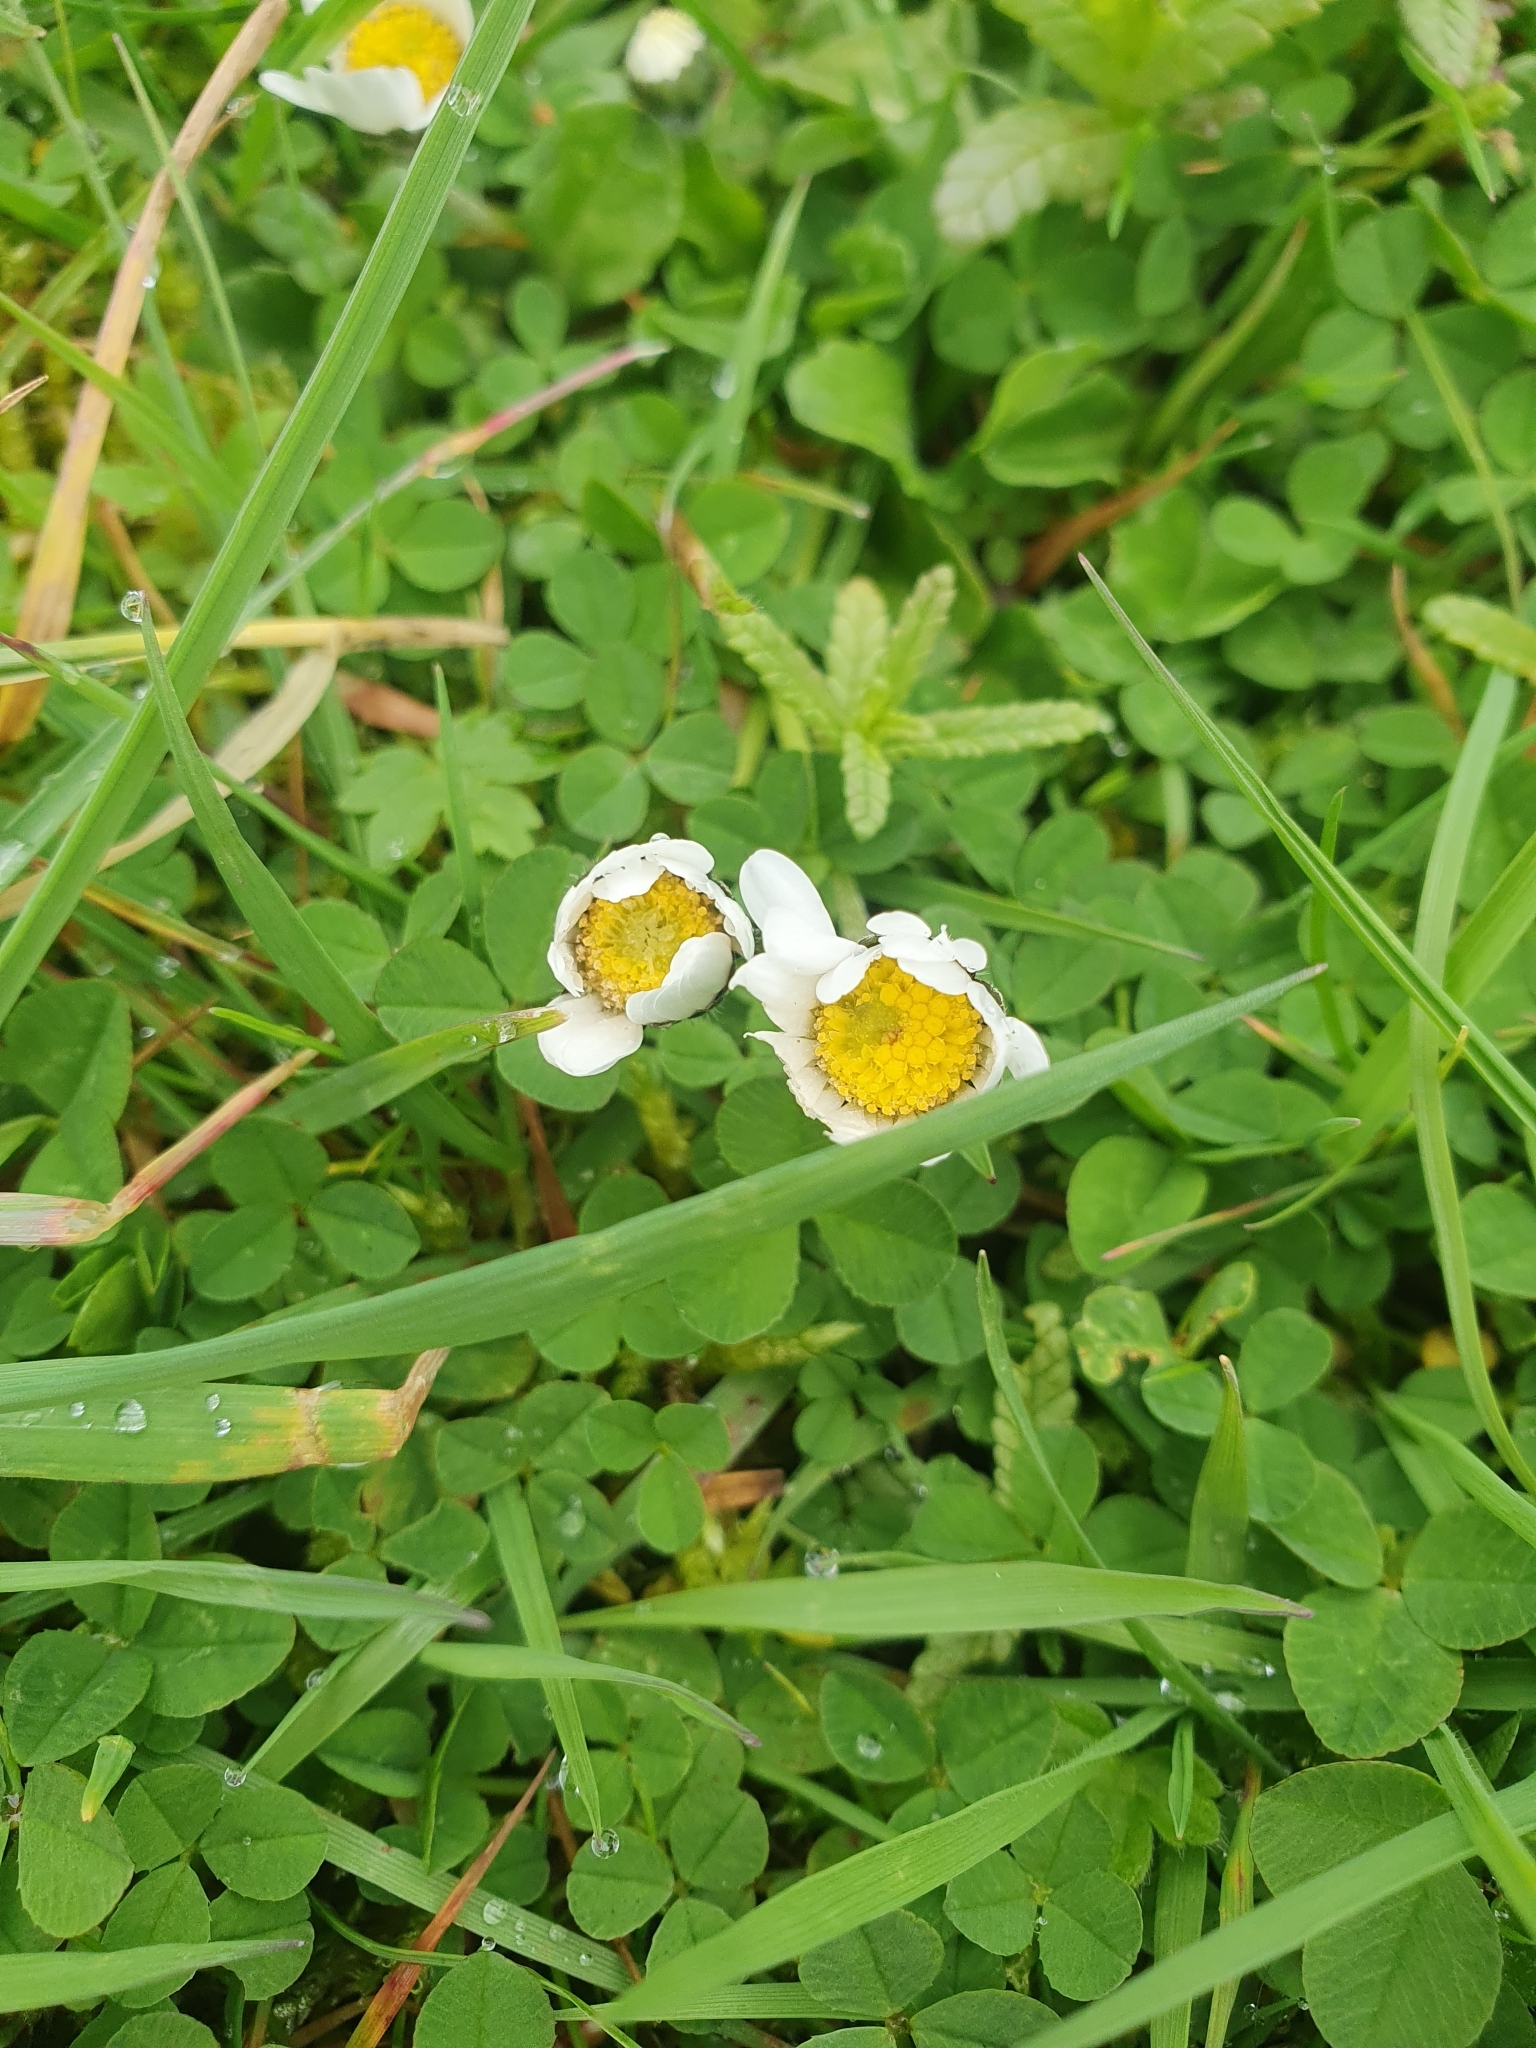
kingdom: Plantae
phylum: Tracheophyta
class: Magnoliopsida
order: Asterales
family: Asteraceae
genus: Bellis
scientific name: Bellis perennis
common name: Lawndaisy
